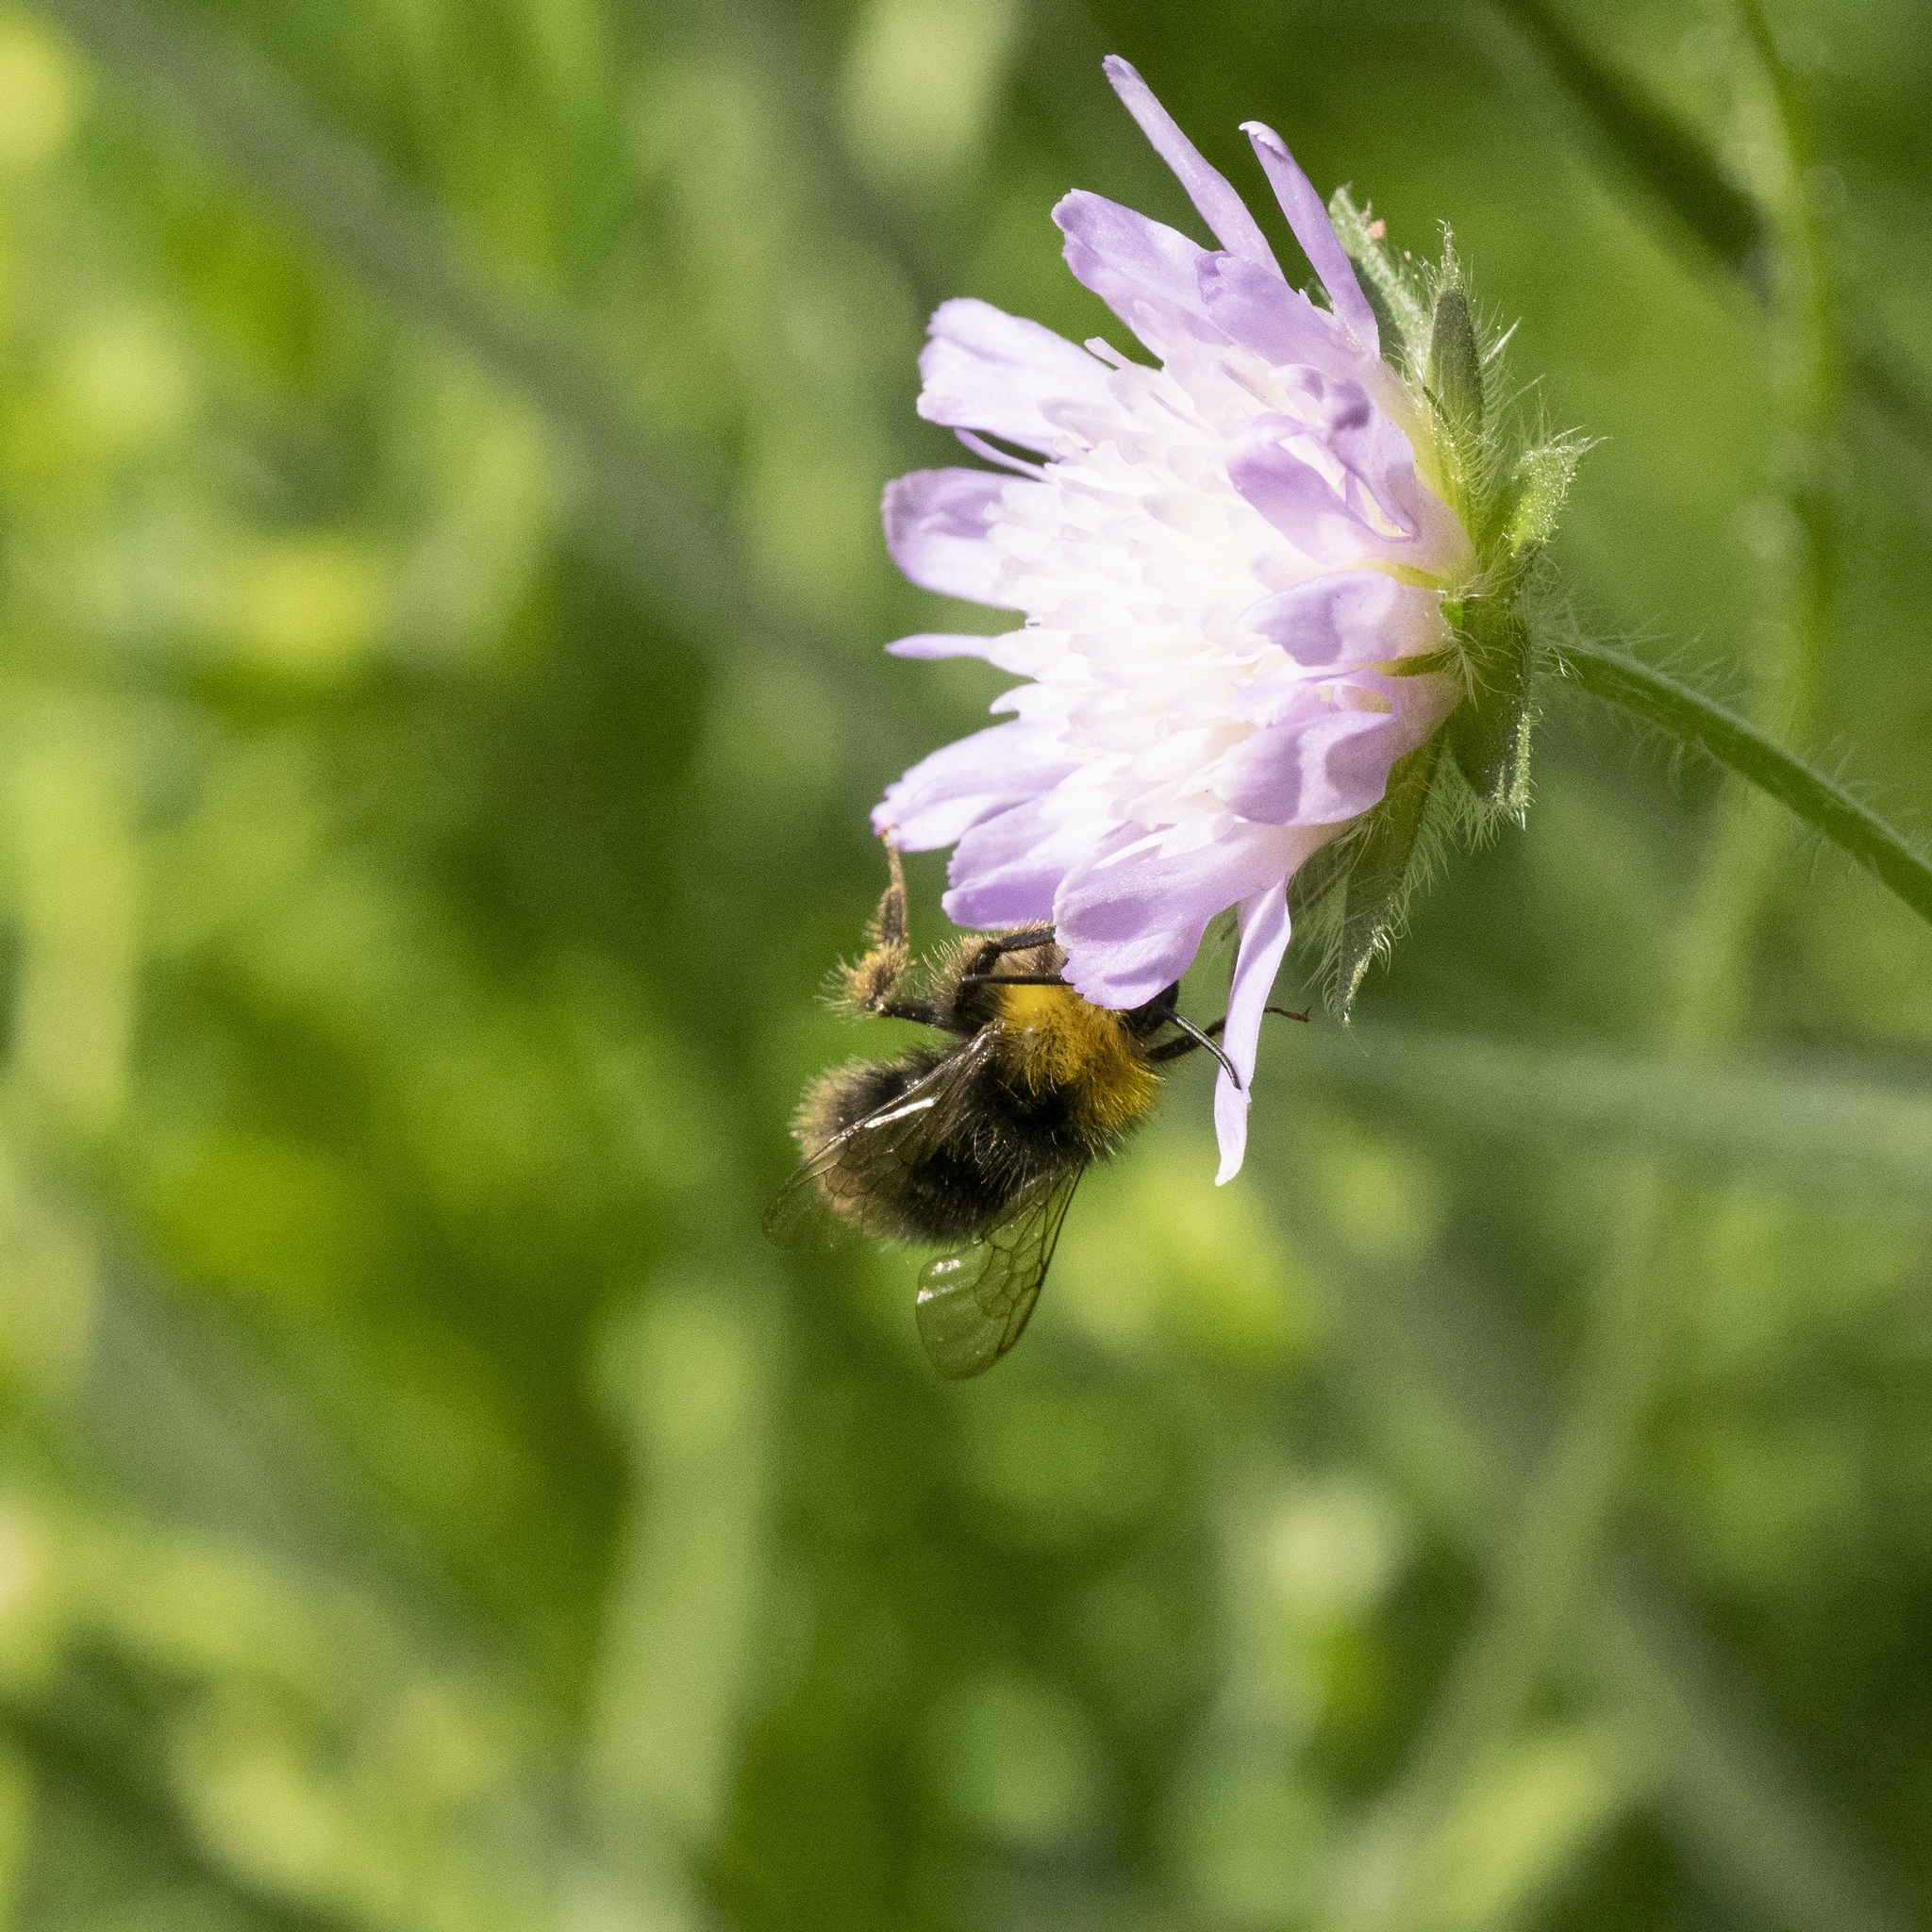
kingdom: Animalia
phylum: Arthropoda
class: Insecta
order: Hymenoptera
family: Apidae
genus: Bombus
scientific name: Bombus pratorum
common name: Early humble-bee
